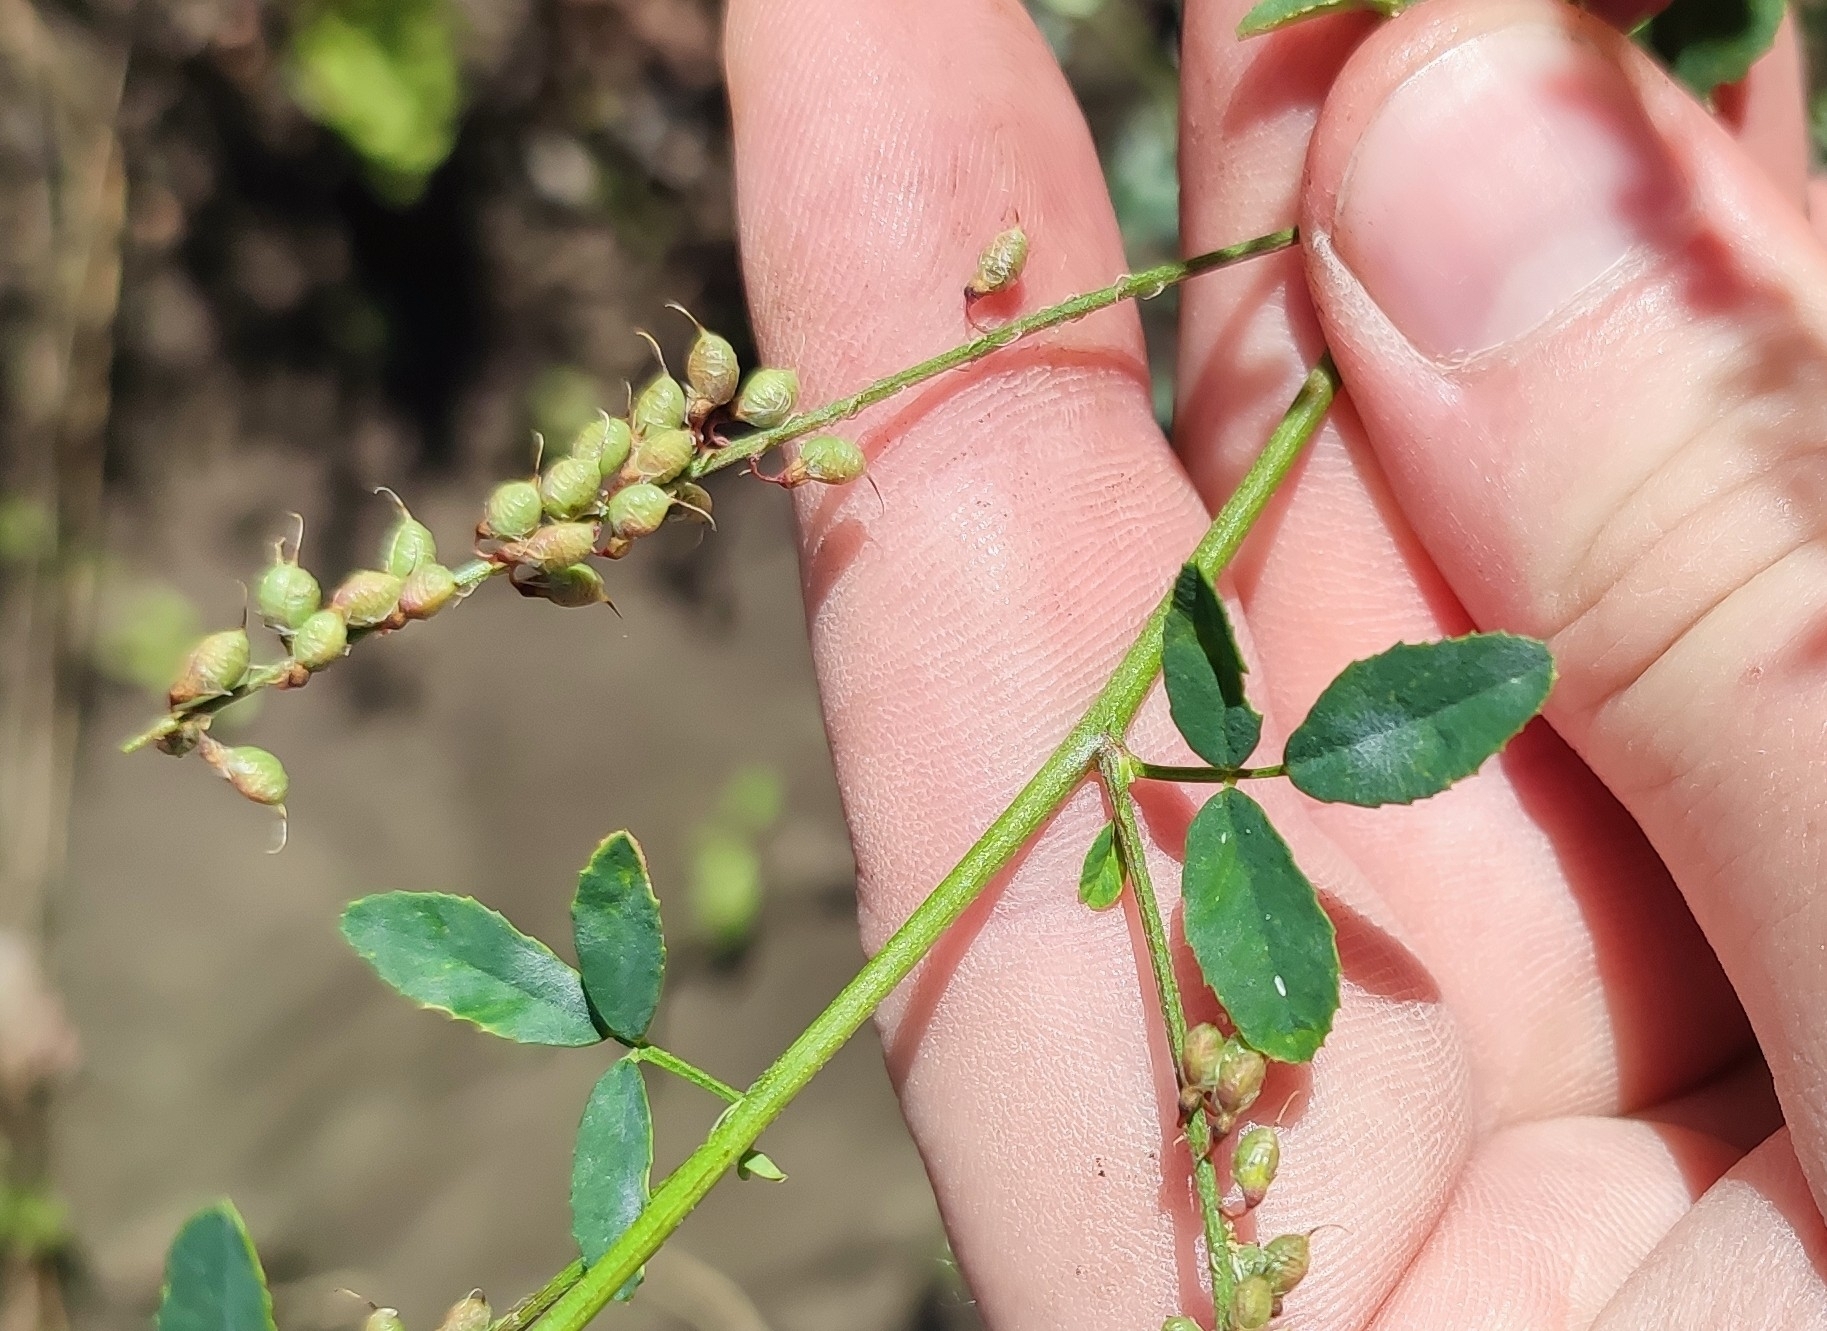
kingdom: Plantae
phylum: Tracheophyta
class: Magnoliopsida
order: Fabales
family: Fabaceae
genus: Melilotus
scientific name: Melilotus officinalis
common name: Sweetclover
